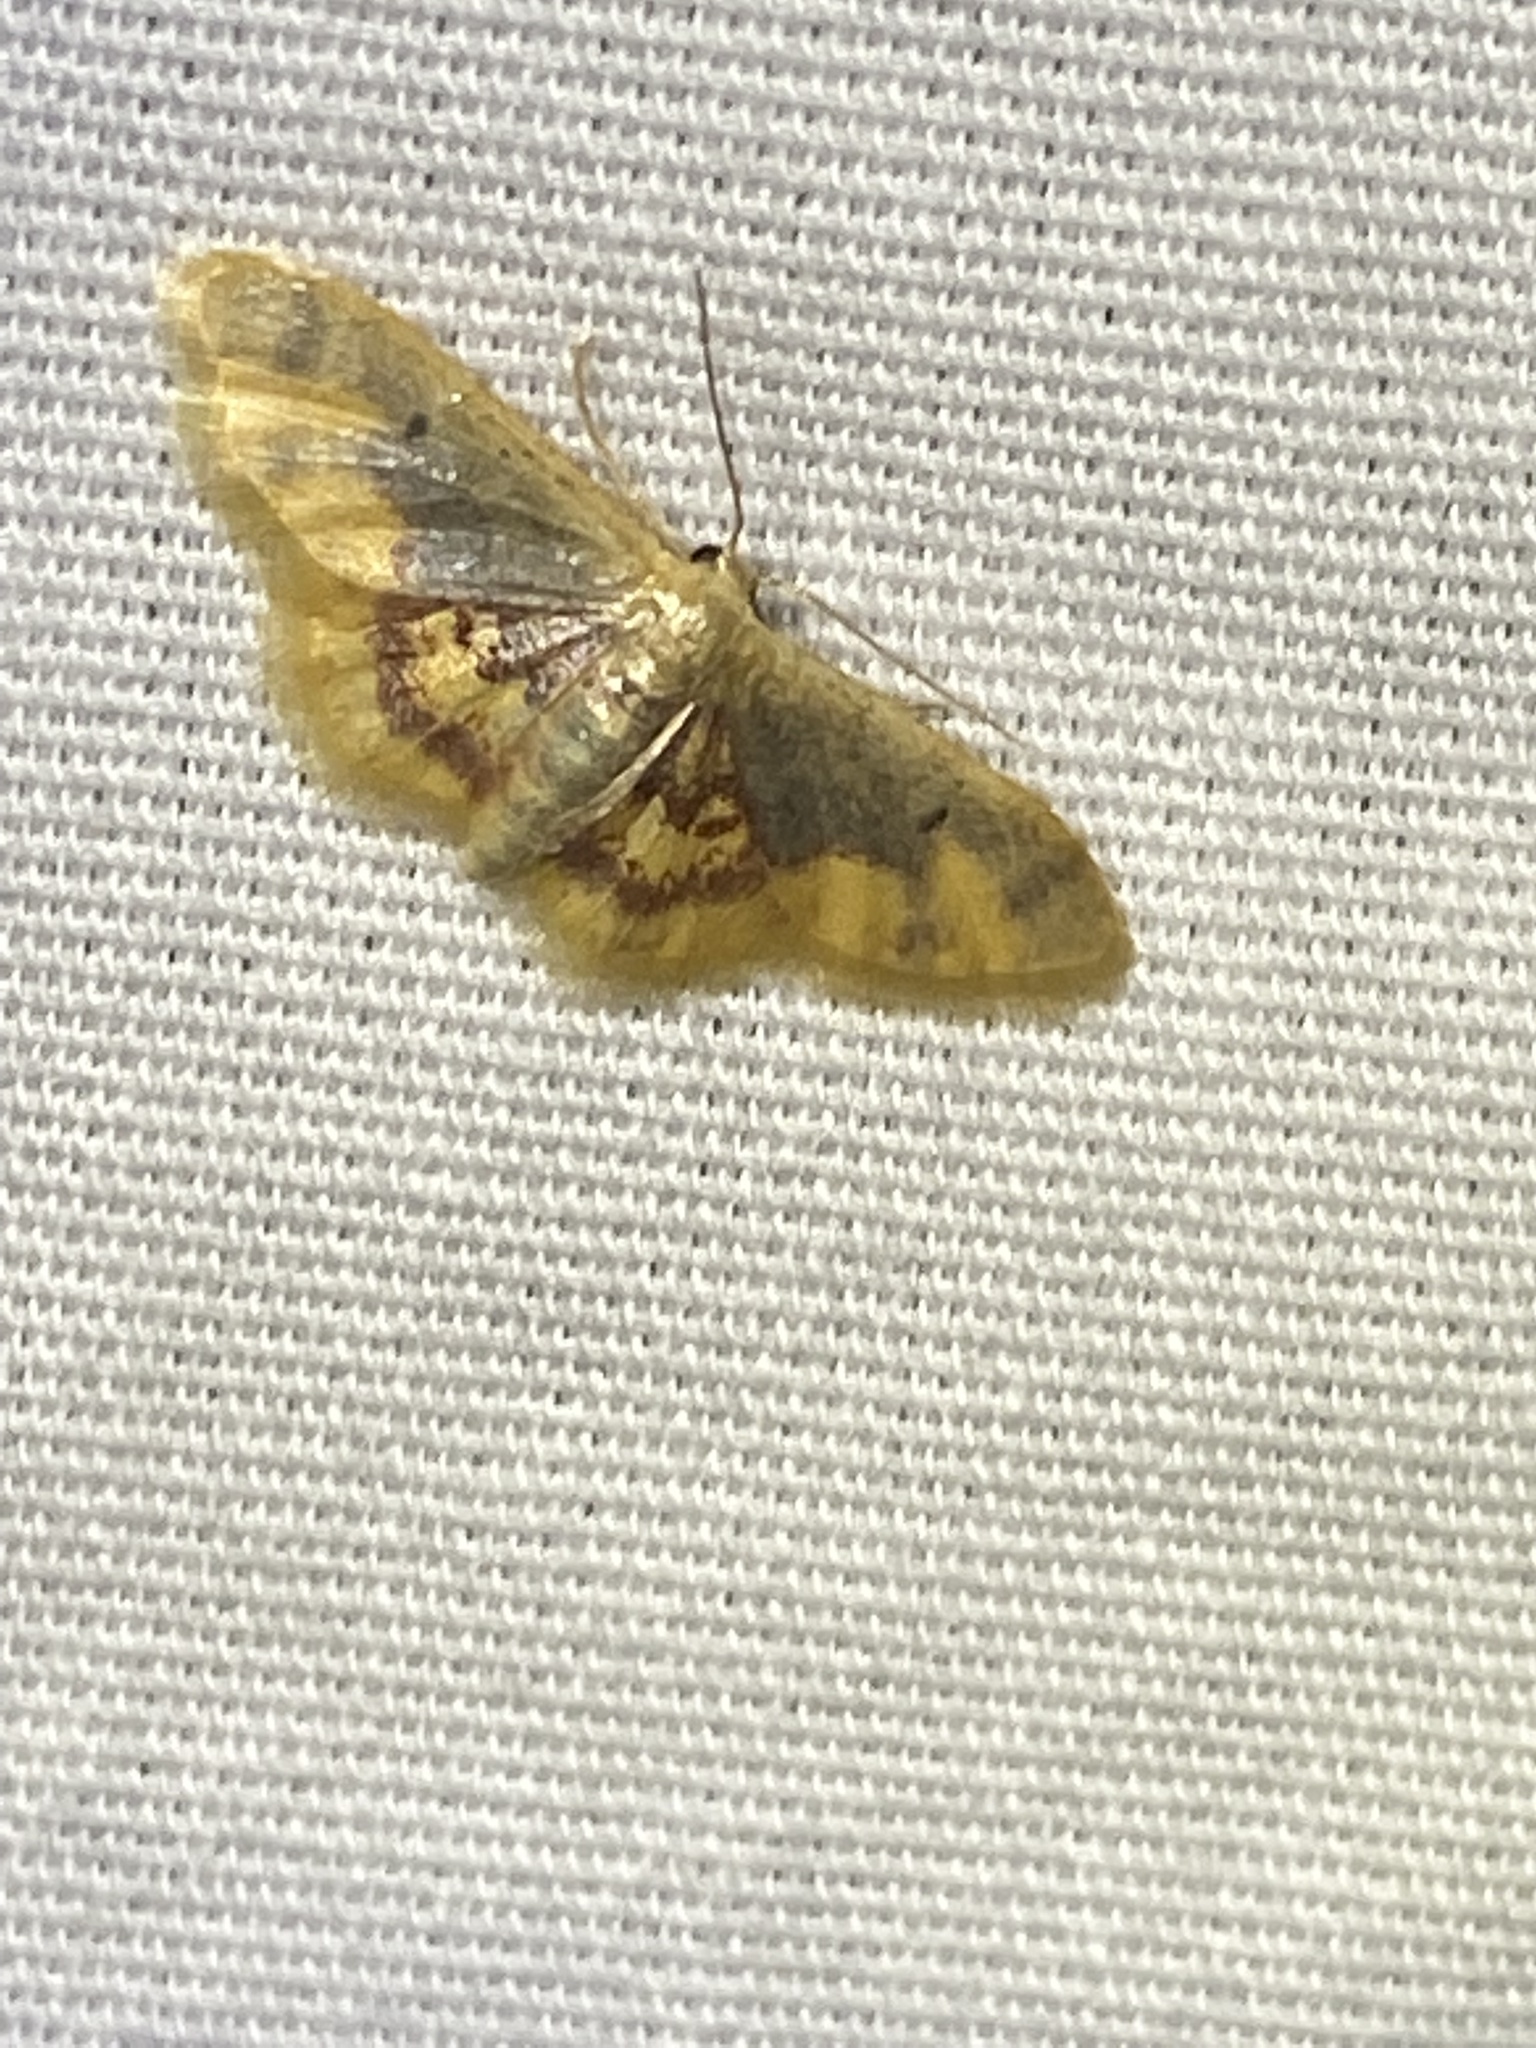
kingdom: Animalia
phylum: Arthropoda
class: Insecta
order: Lepidoptera
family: Geometridae
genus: Idaea
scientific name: Idaea scintillularia
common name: Diminutive wave
